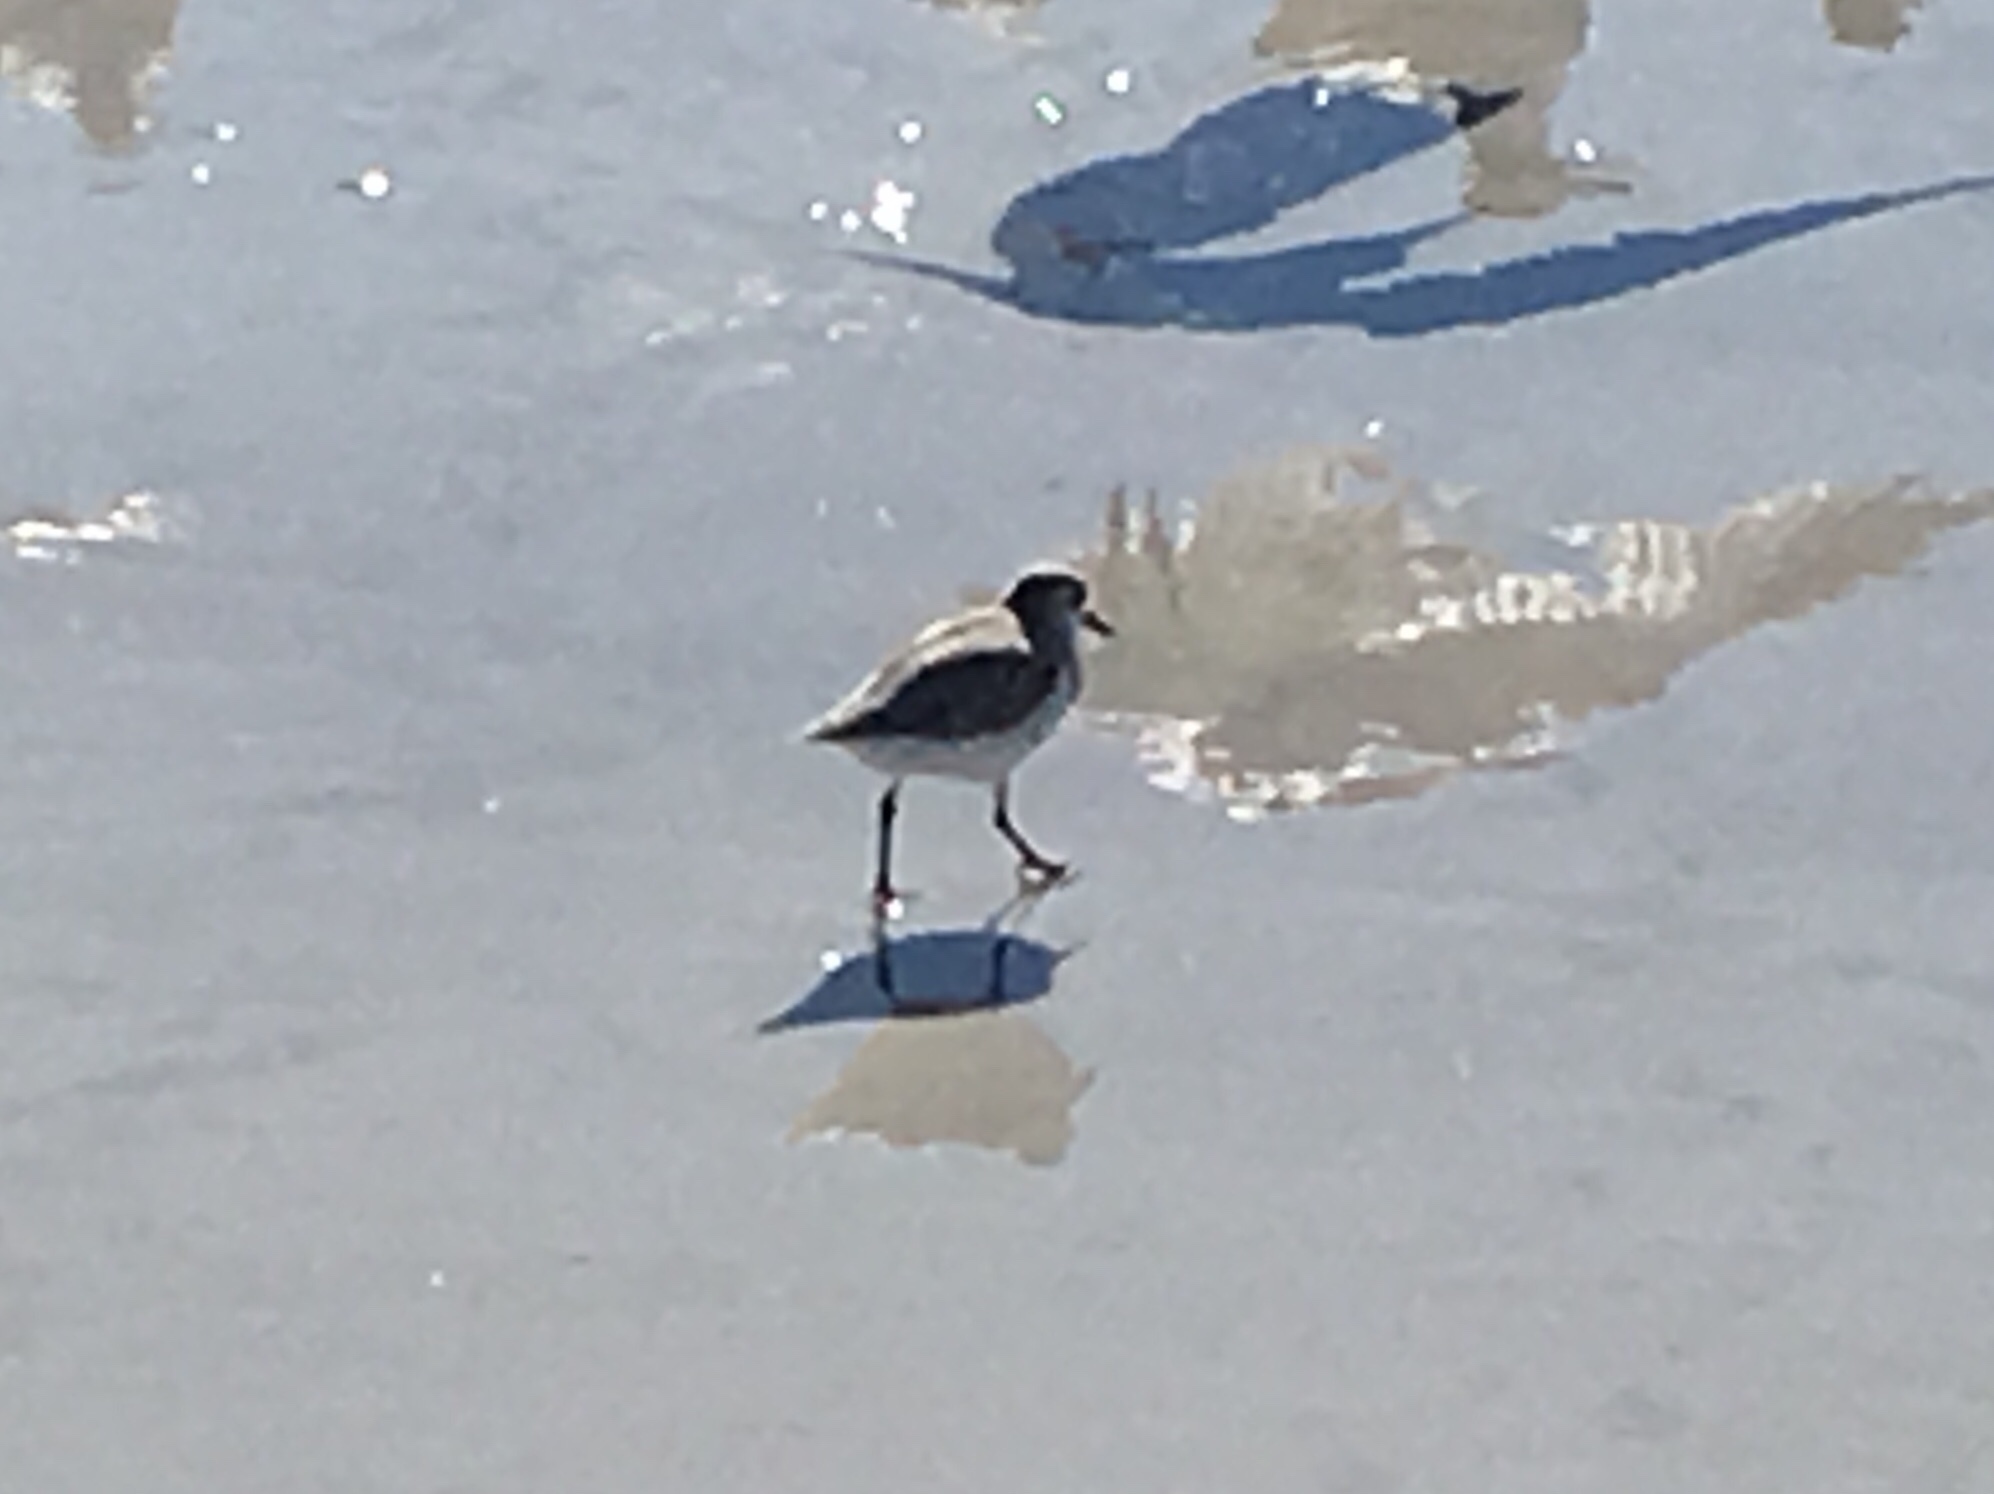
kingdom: Animalia
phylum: Chordata
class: Aves
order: Charadriiformes
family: Scolopacidae
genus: Calidris
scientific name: Calidris
